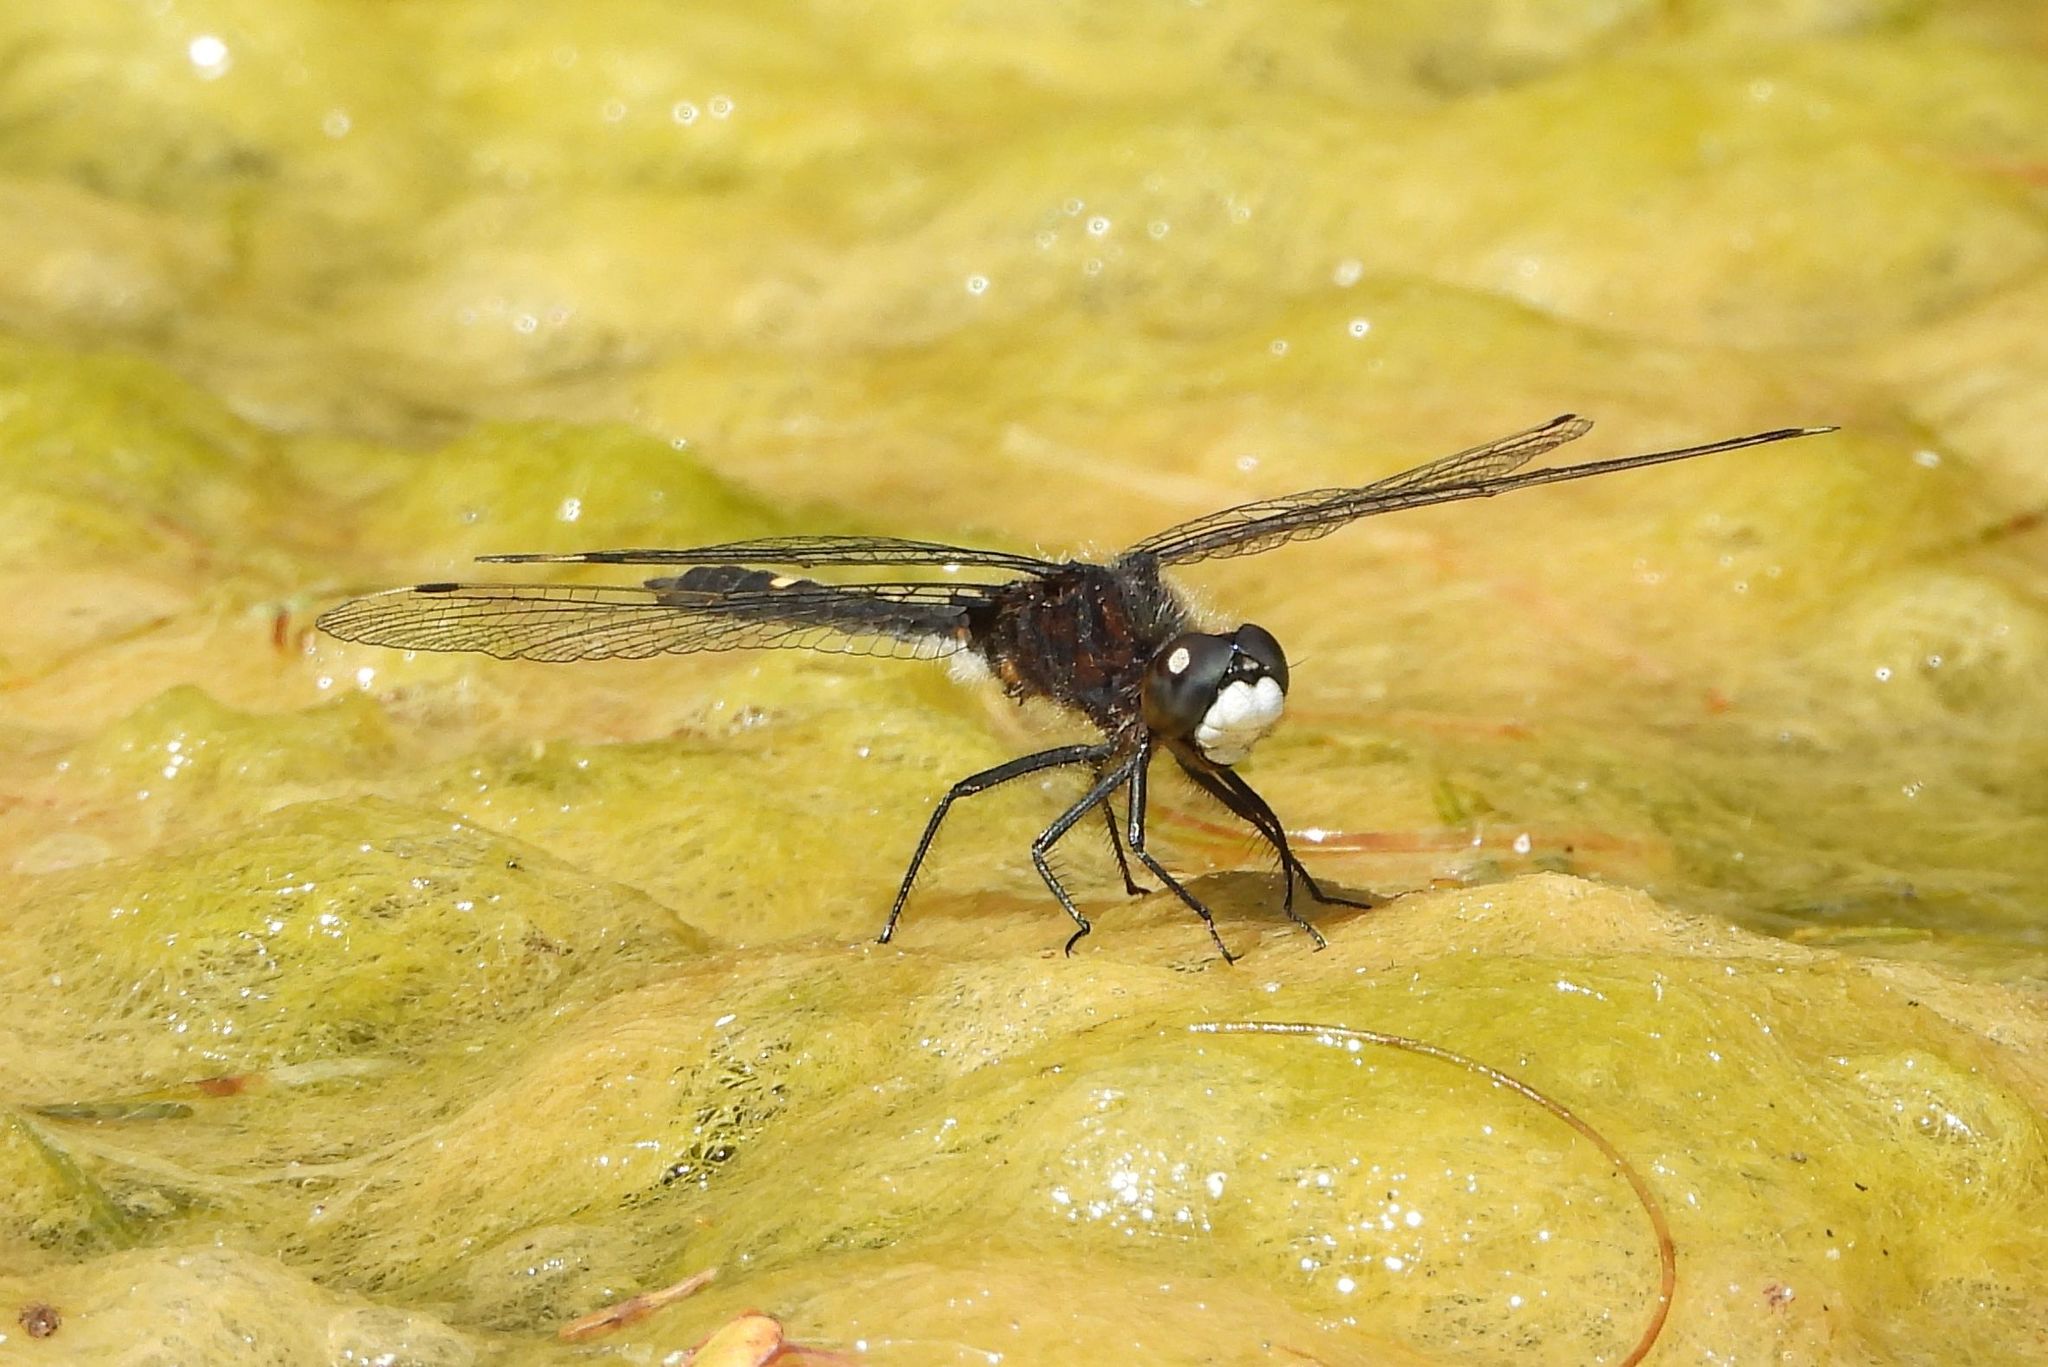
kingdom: Animalia
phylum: Arthropoda
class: Insecta
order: Odonata
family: Libellulidae
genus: Leucorrhinia
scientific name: Leucorrhinia intacta
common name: Dot-tailed whiteface
